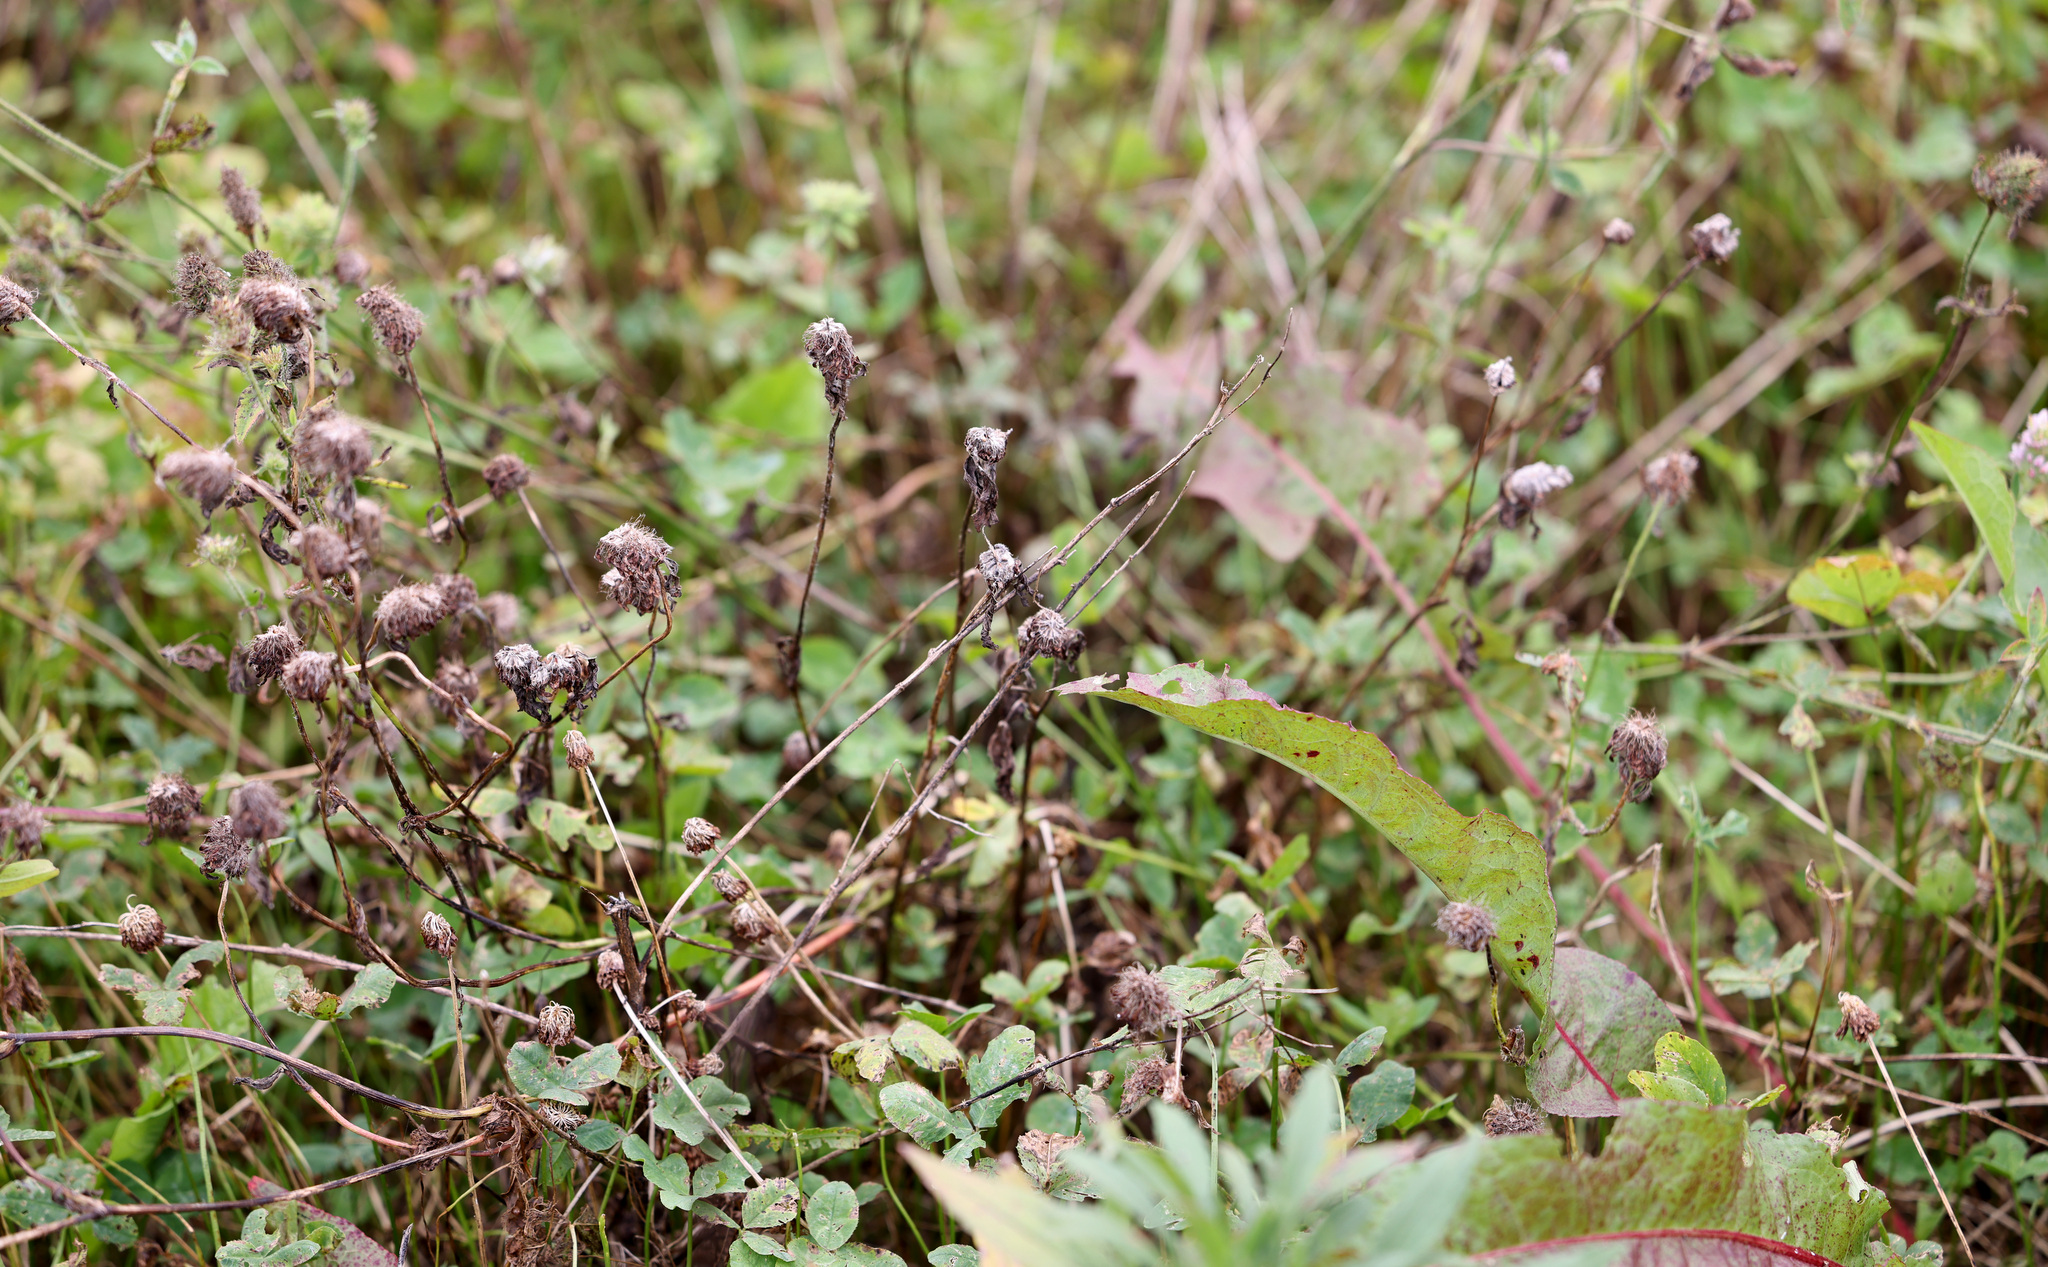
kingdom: Plantae
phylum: Tracheophyta
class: Magnoliopsida
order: Fabales
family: Fabaceae
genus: Trifolium
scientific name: Trifolium pratense
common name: Red clover
